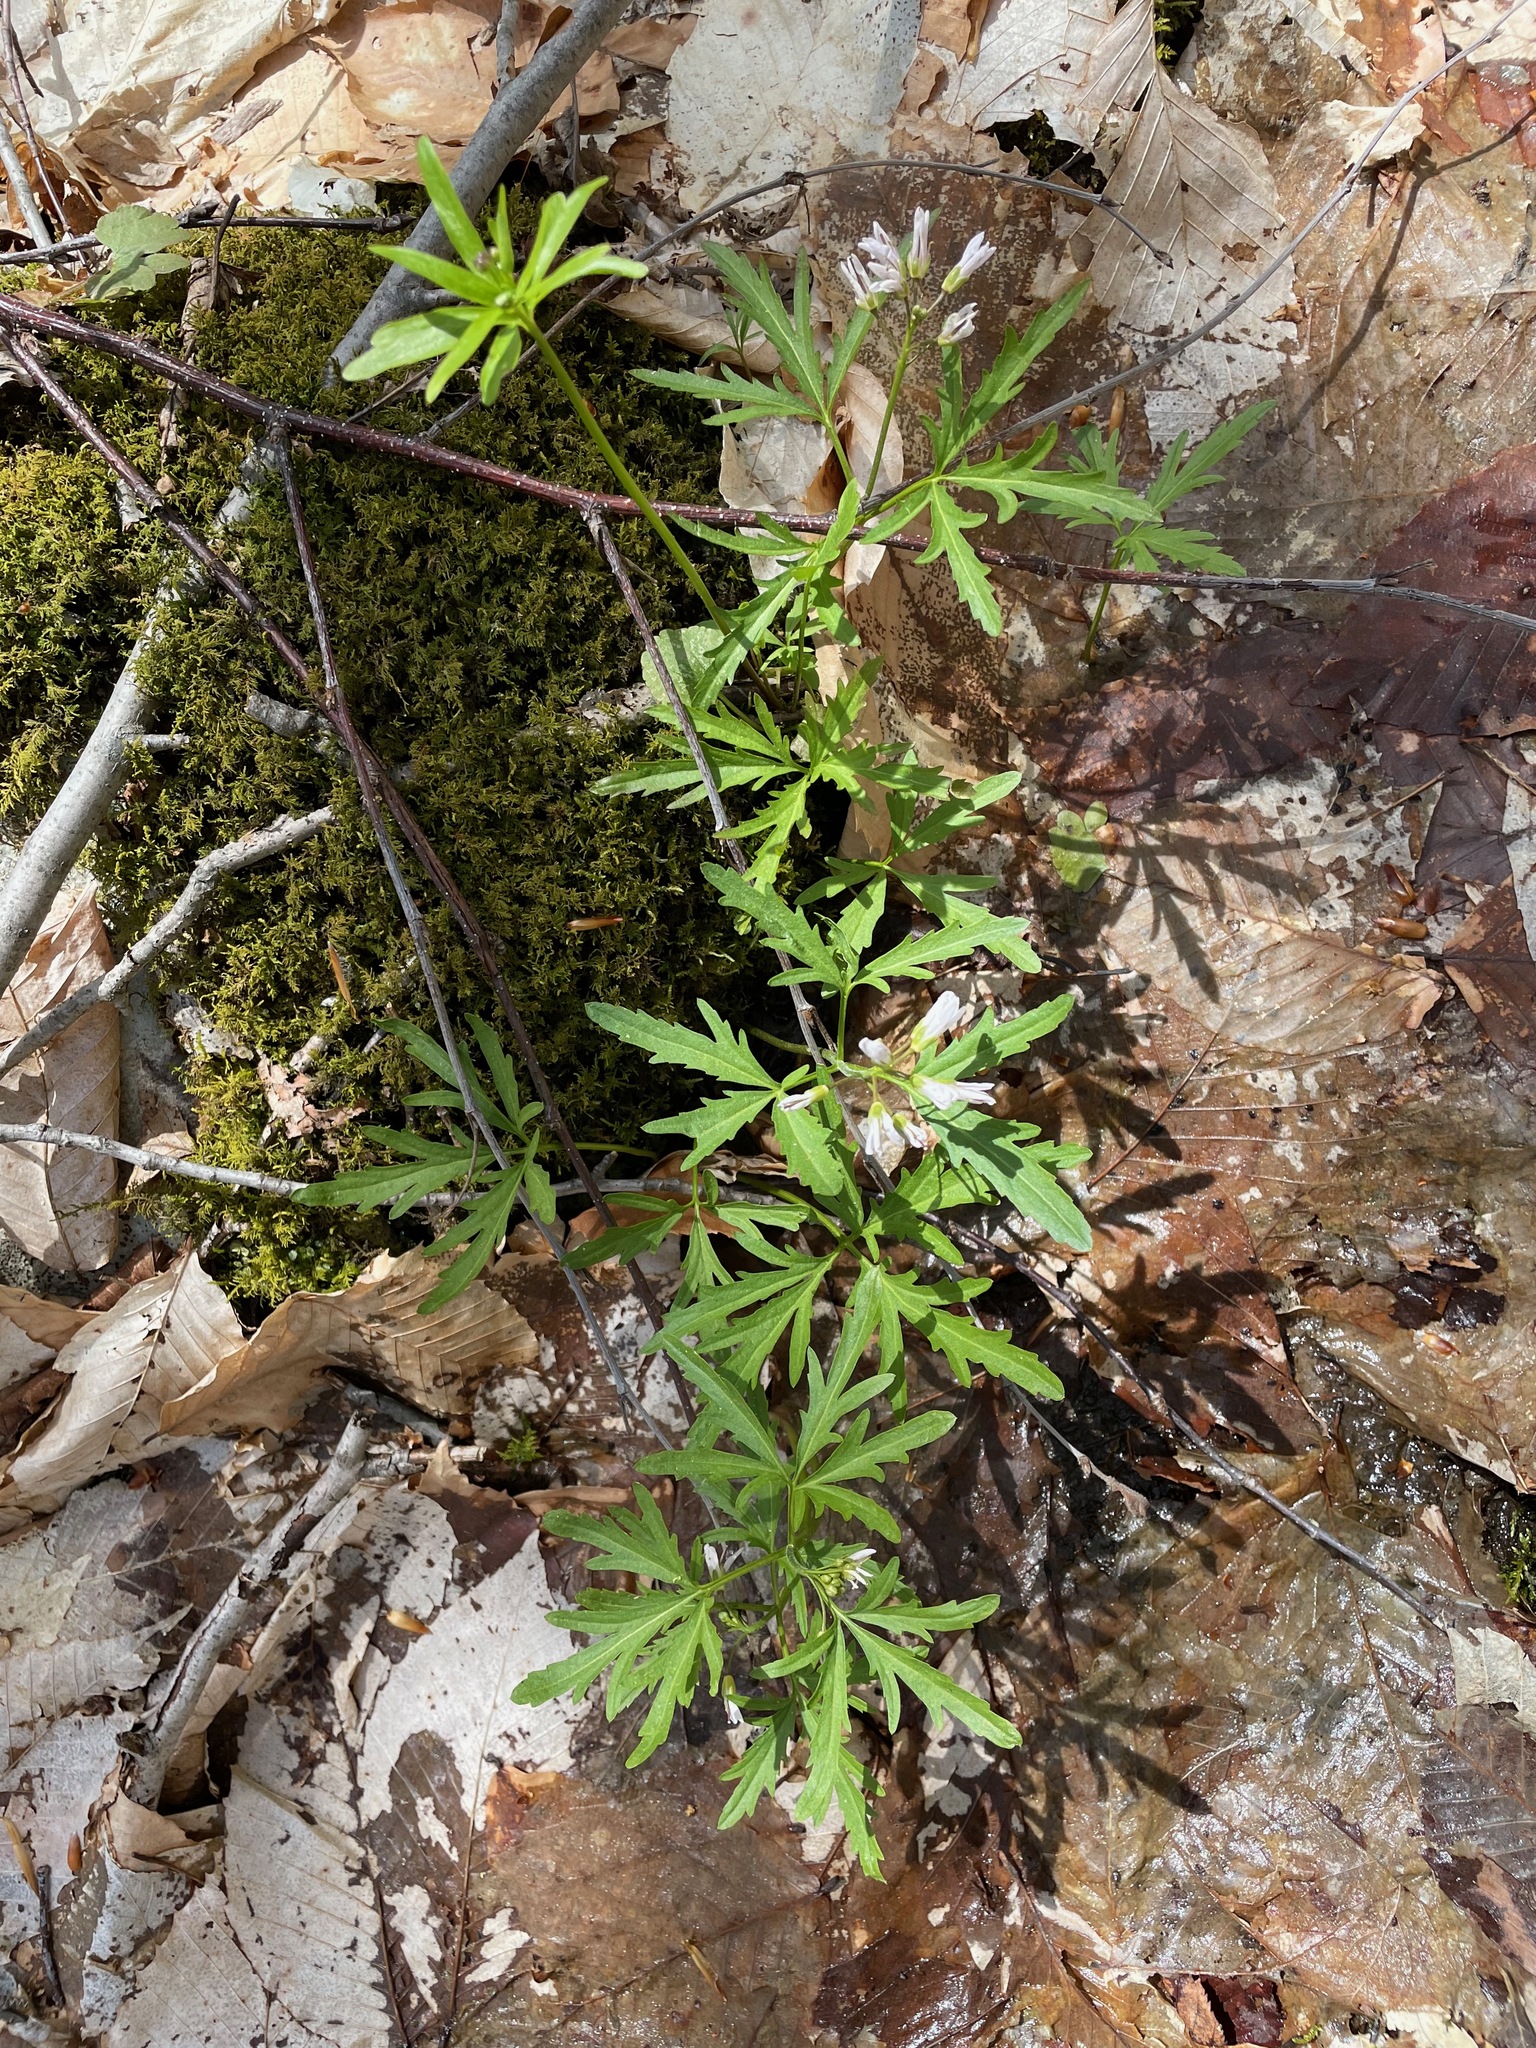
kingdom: Plantae
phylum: Tracheophyta
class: Magnoliopsida
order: Brassicales
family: Brassicaceae
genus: Cardamine
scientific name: Cardamine concatenata
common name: Cut-leaf toothcup
